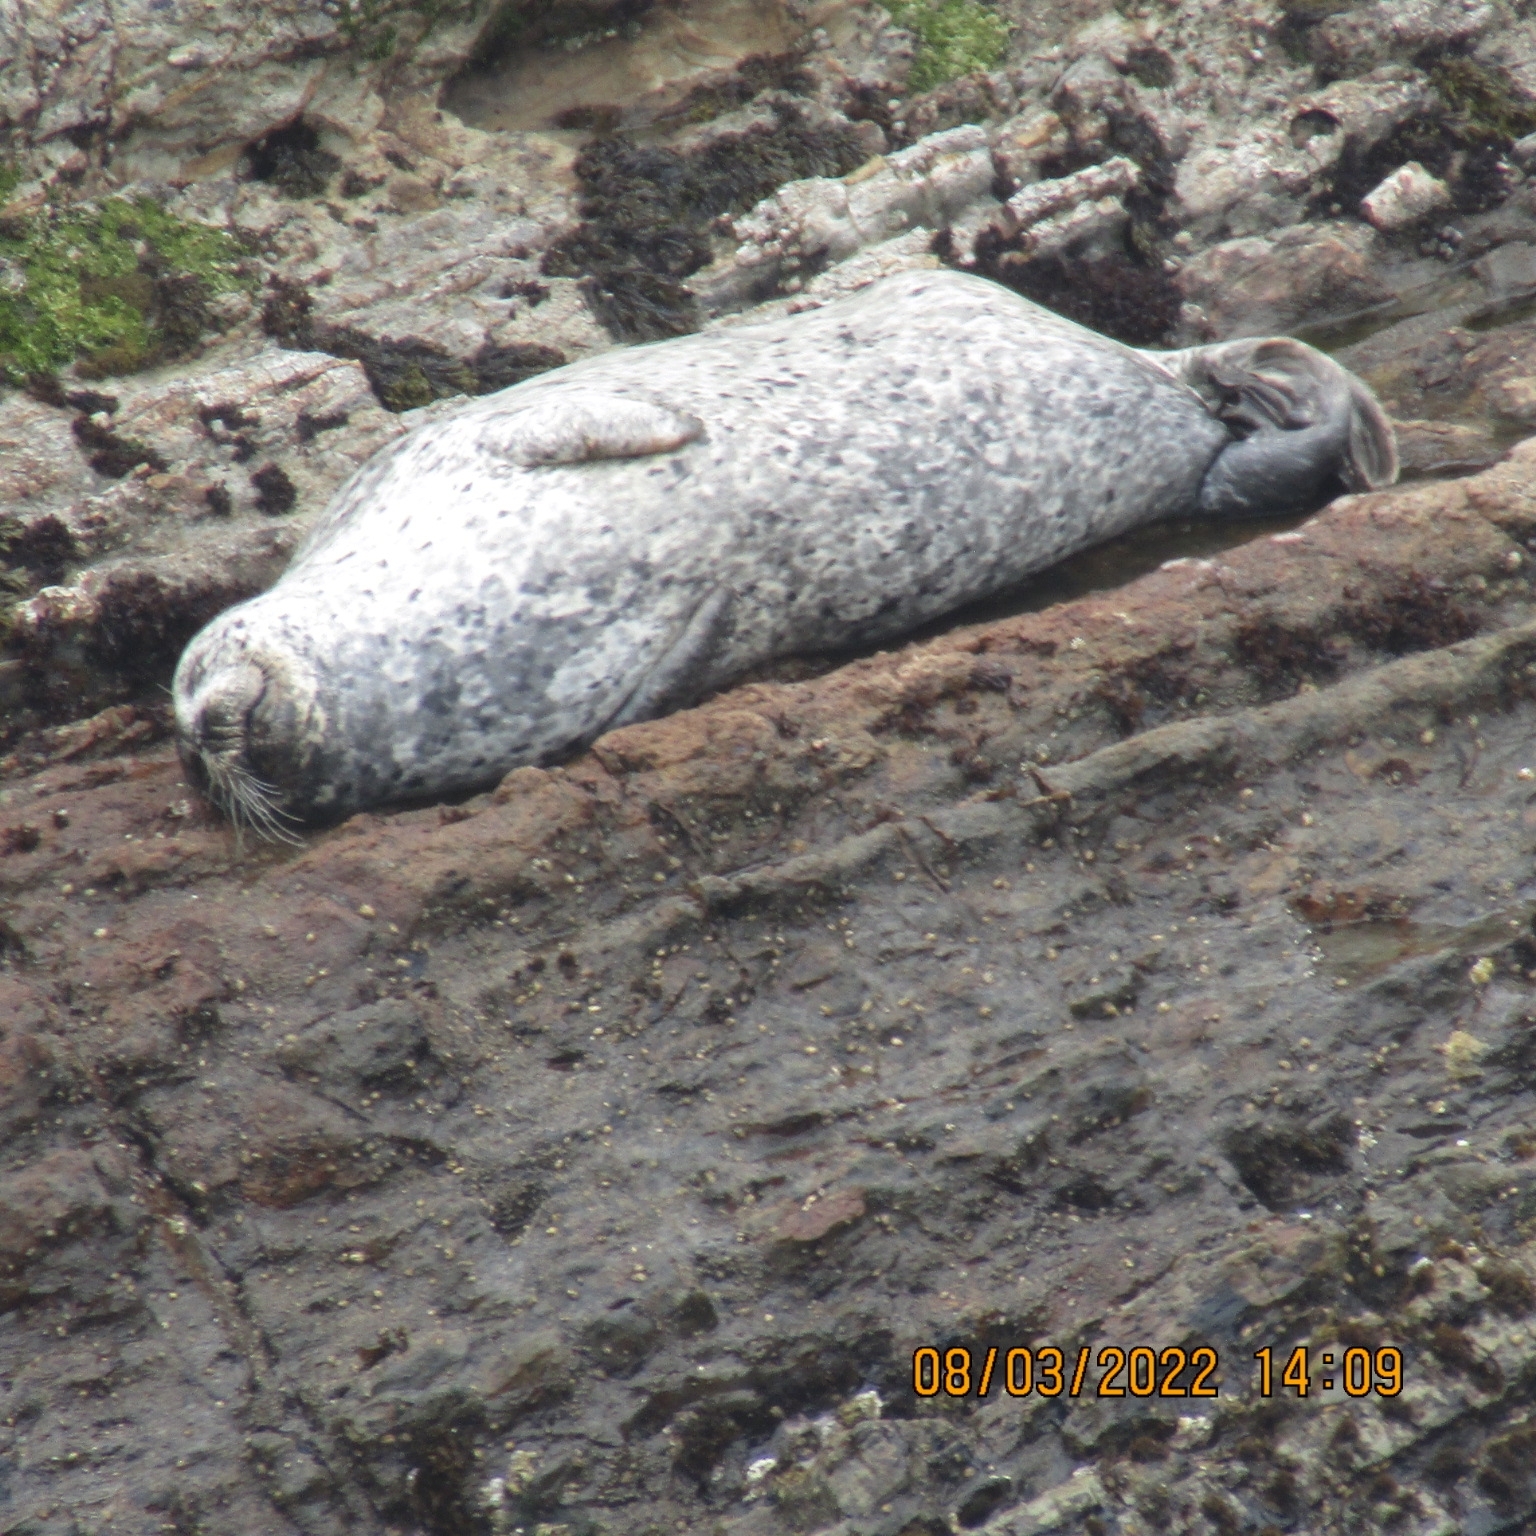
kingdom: Animalia
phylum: Chordata
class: Mammalia
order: Carnivora
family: Phocidae
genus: Phoca
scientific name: Phoca vitulina
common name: Harbor seal
